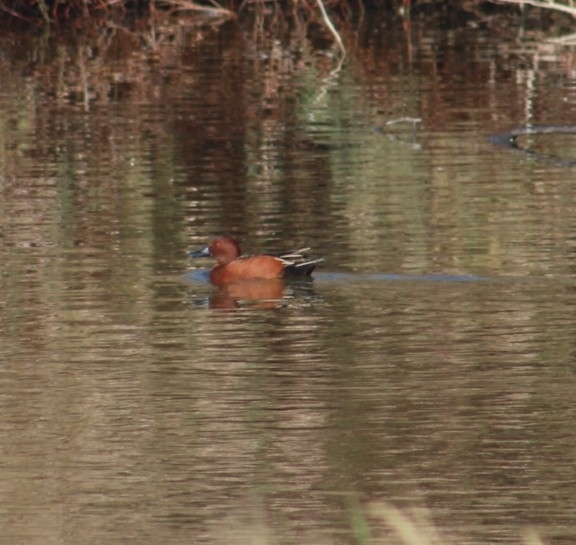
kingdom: Animalia
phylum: Chordata
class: Aves
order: Anseriformes
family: Anatidae
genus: Spatula
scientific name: Spatula cyanoptera
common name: Cinnamon teal
